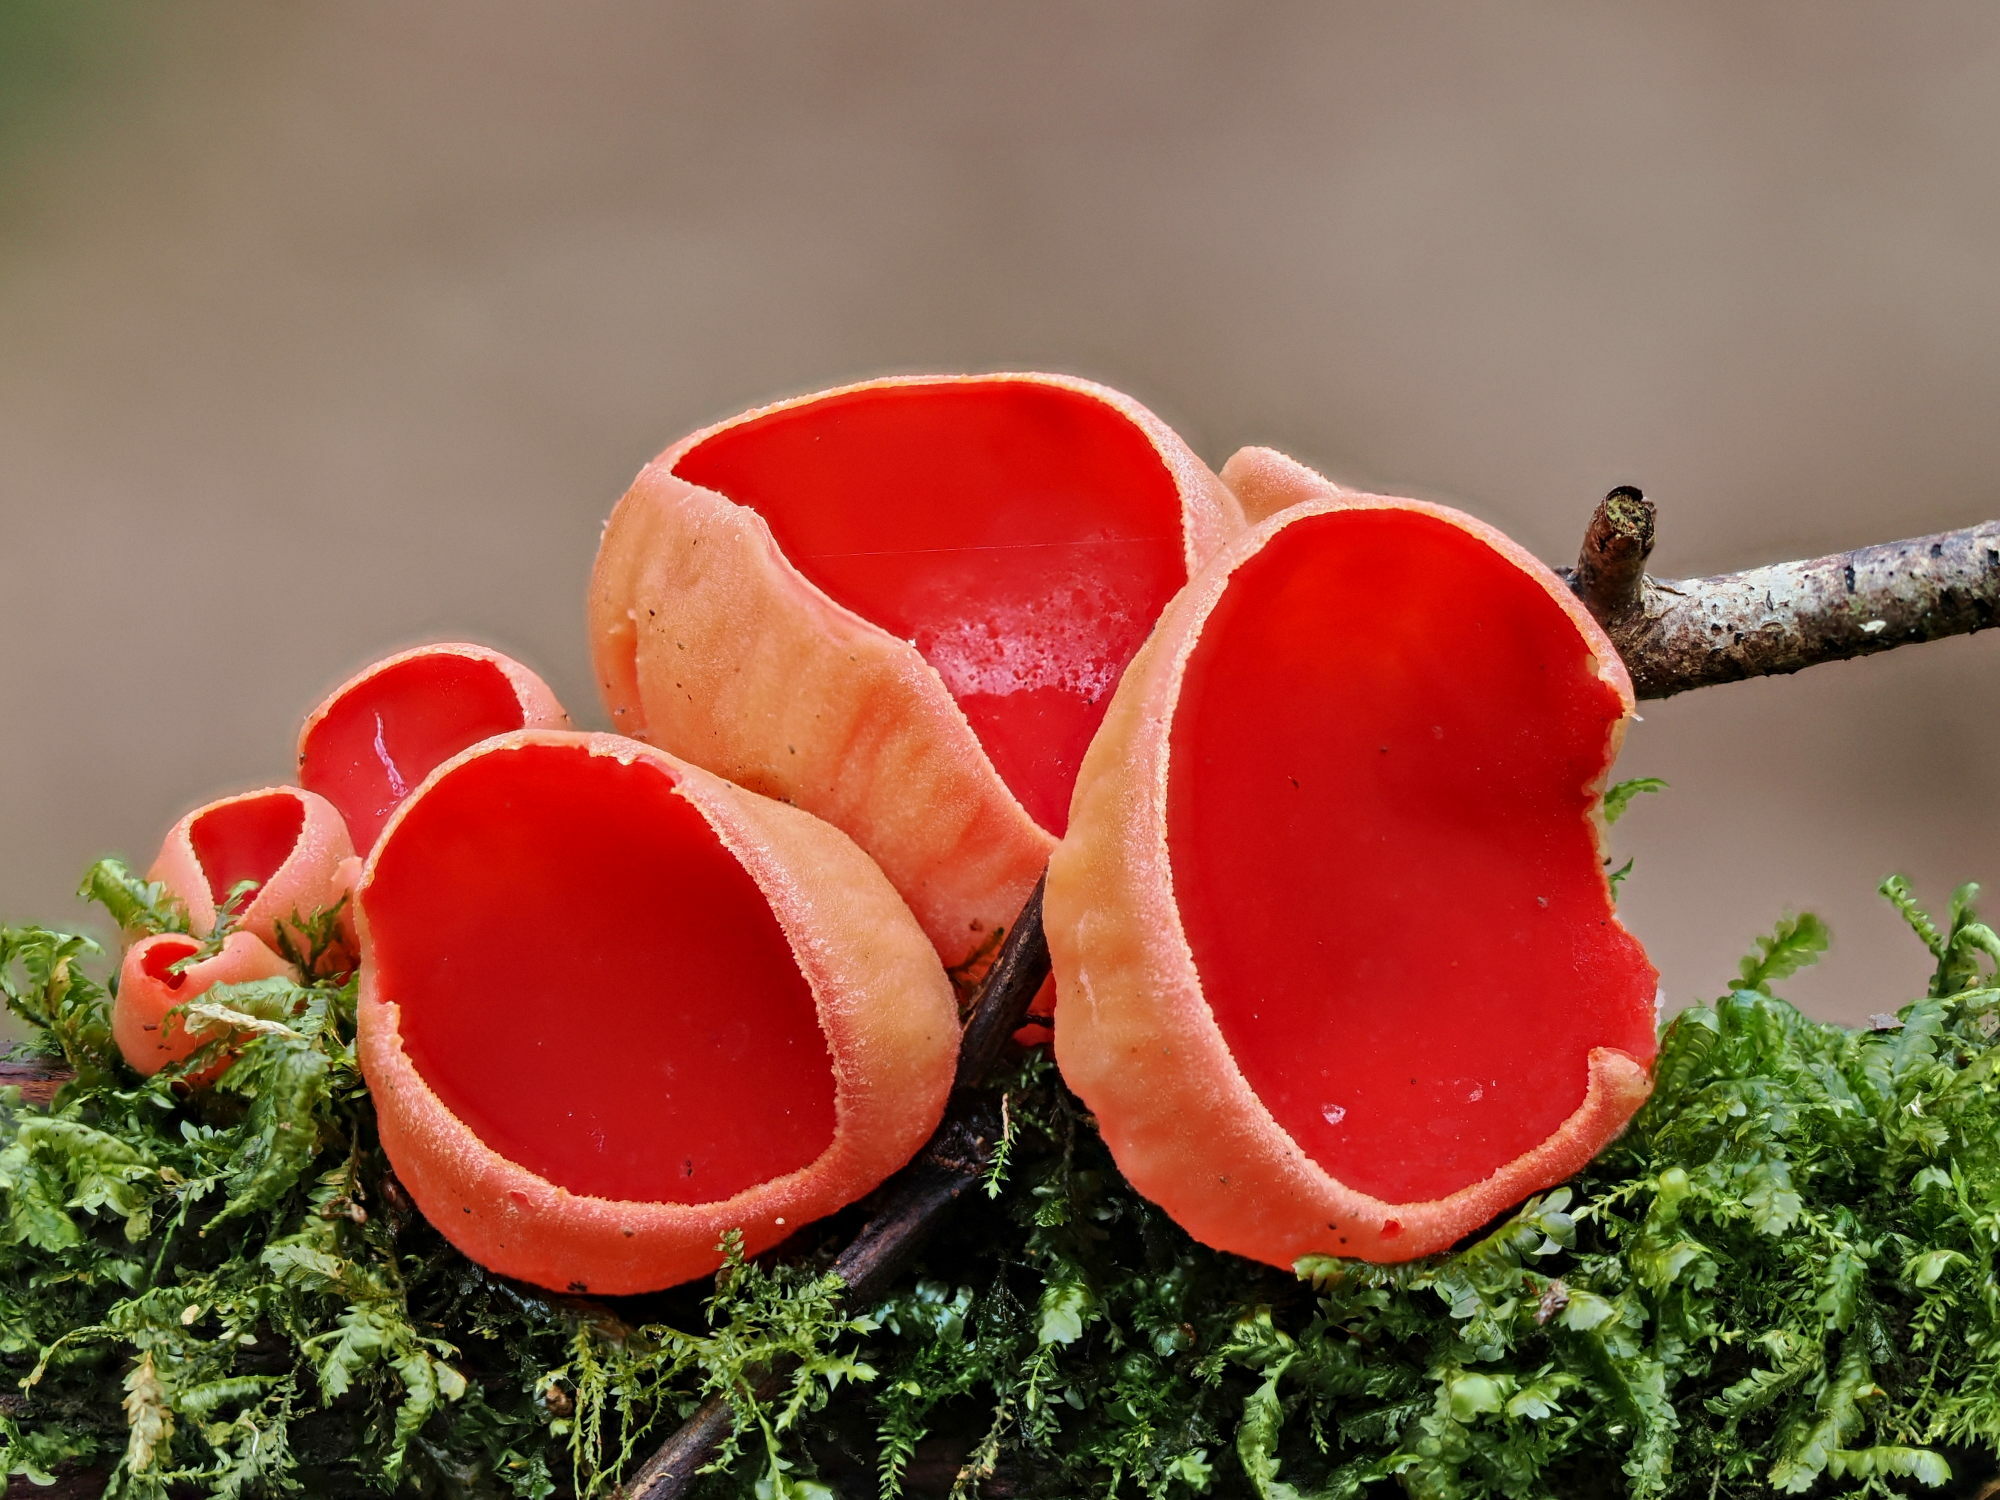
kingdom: Fungi
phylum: Ascomycota
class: Pezizomycetes
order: Pezizales
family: Sarcoscyphaceae
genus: Sarcoscypha
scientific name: Sarcoscypha
